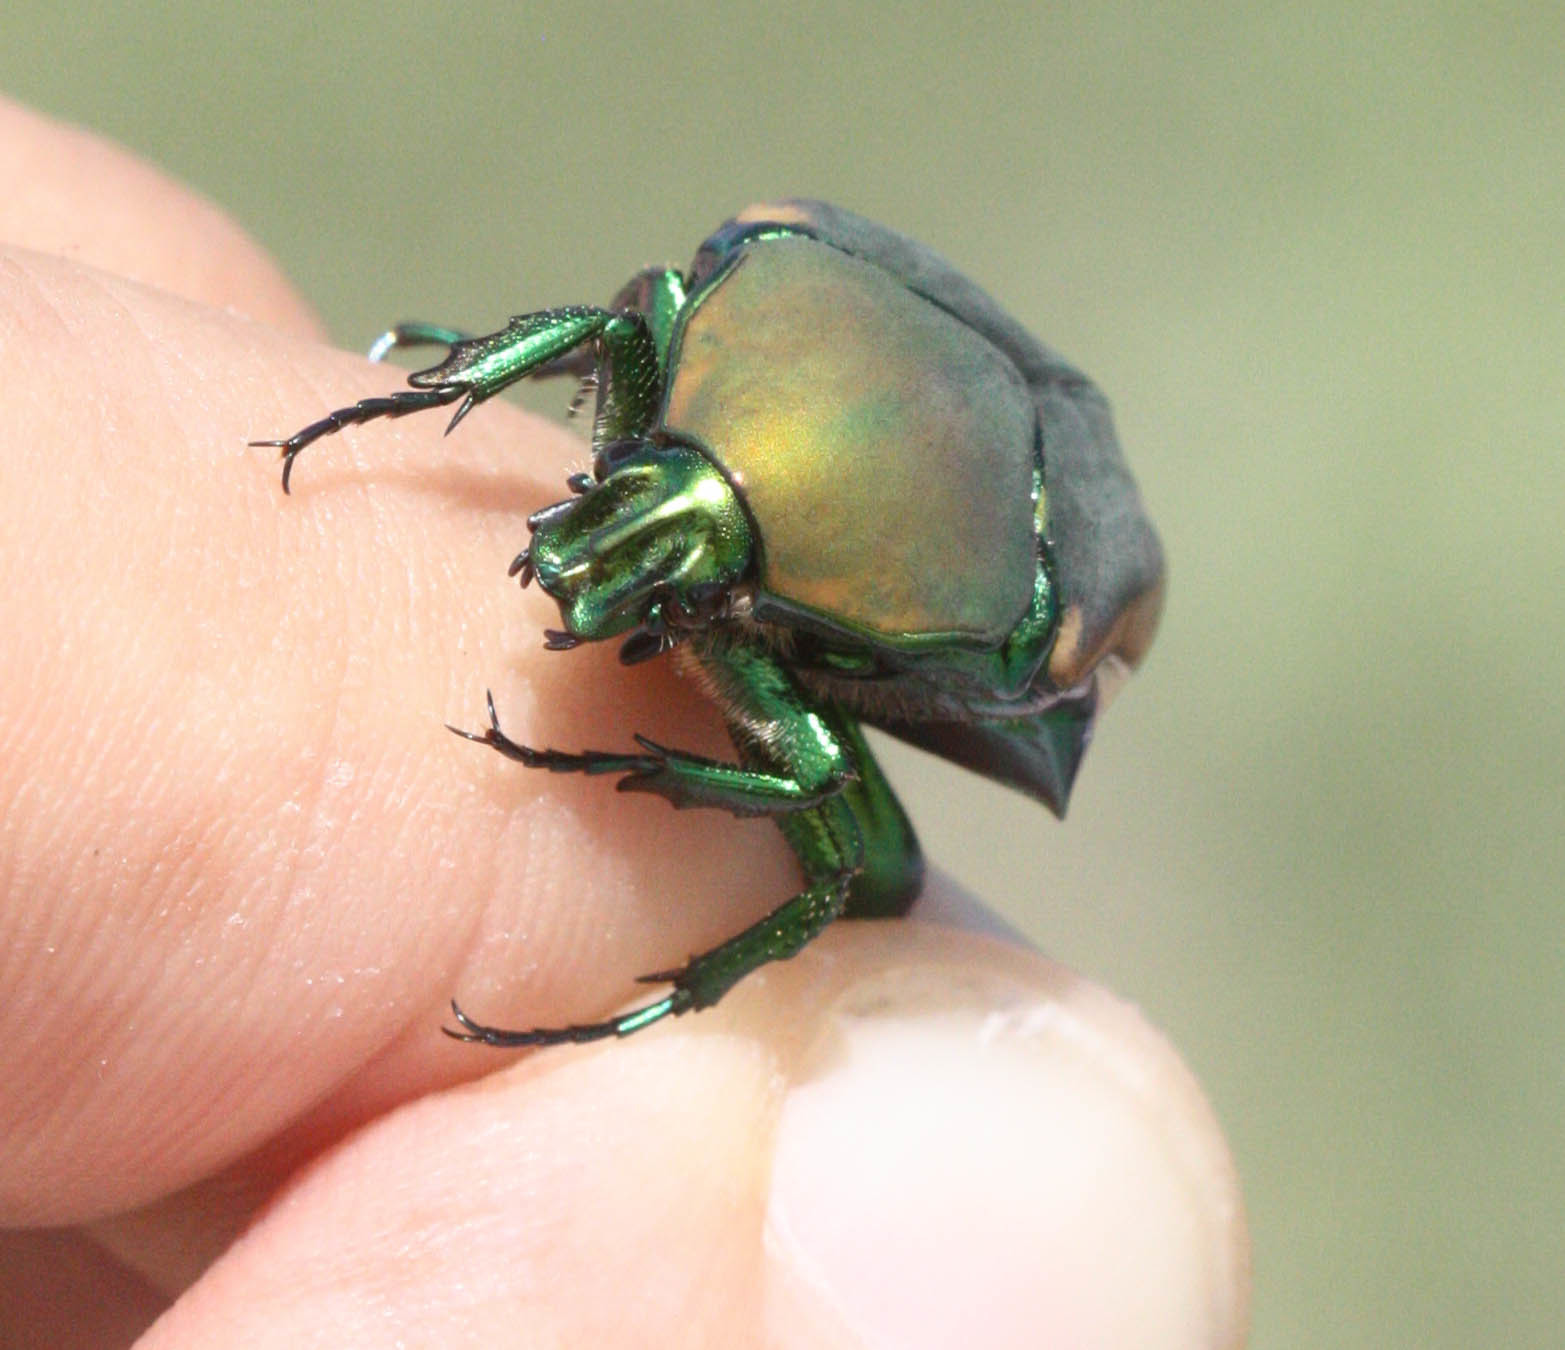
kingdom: Animalia
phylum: Arthropoda
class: Insecta
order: Coleoptera
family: Scarabaeidae
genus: Cotinis
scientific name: Cotinis mutabilis
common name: Figeater beetle
